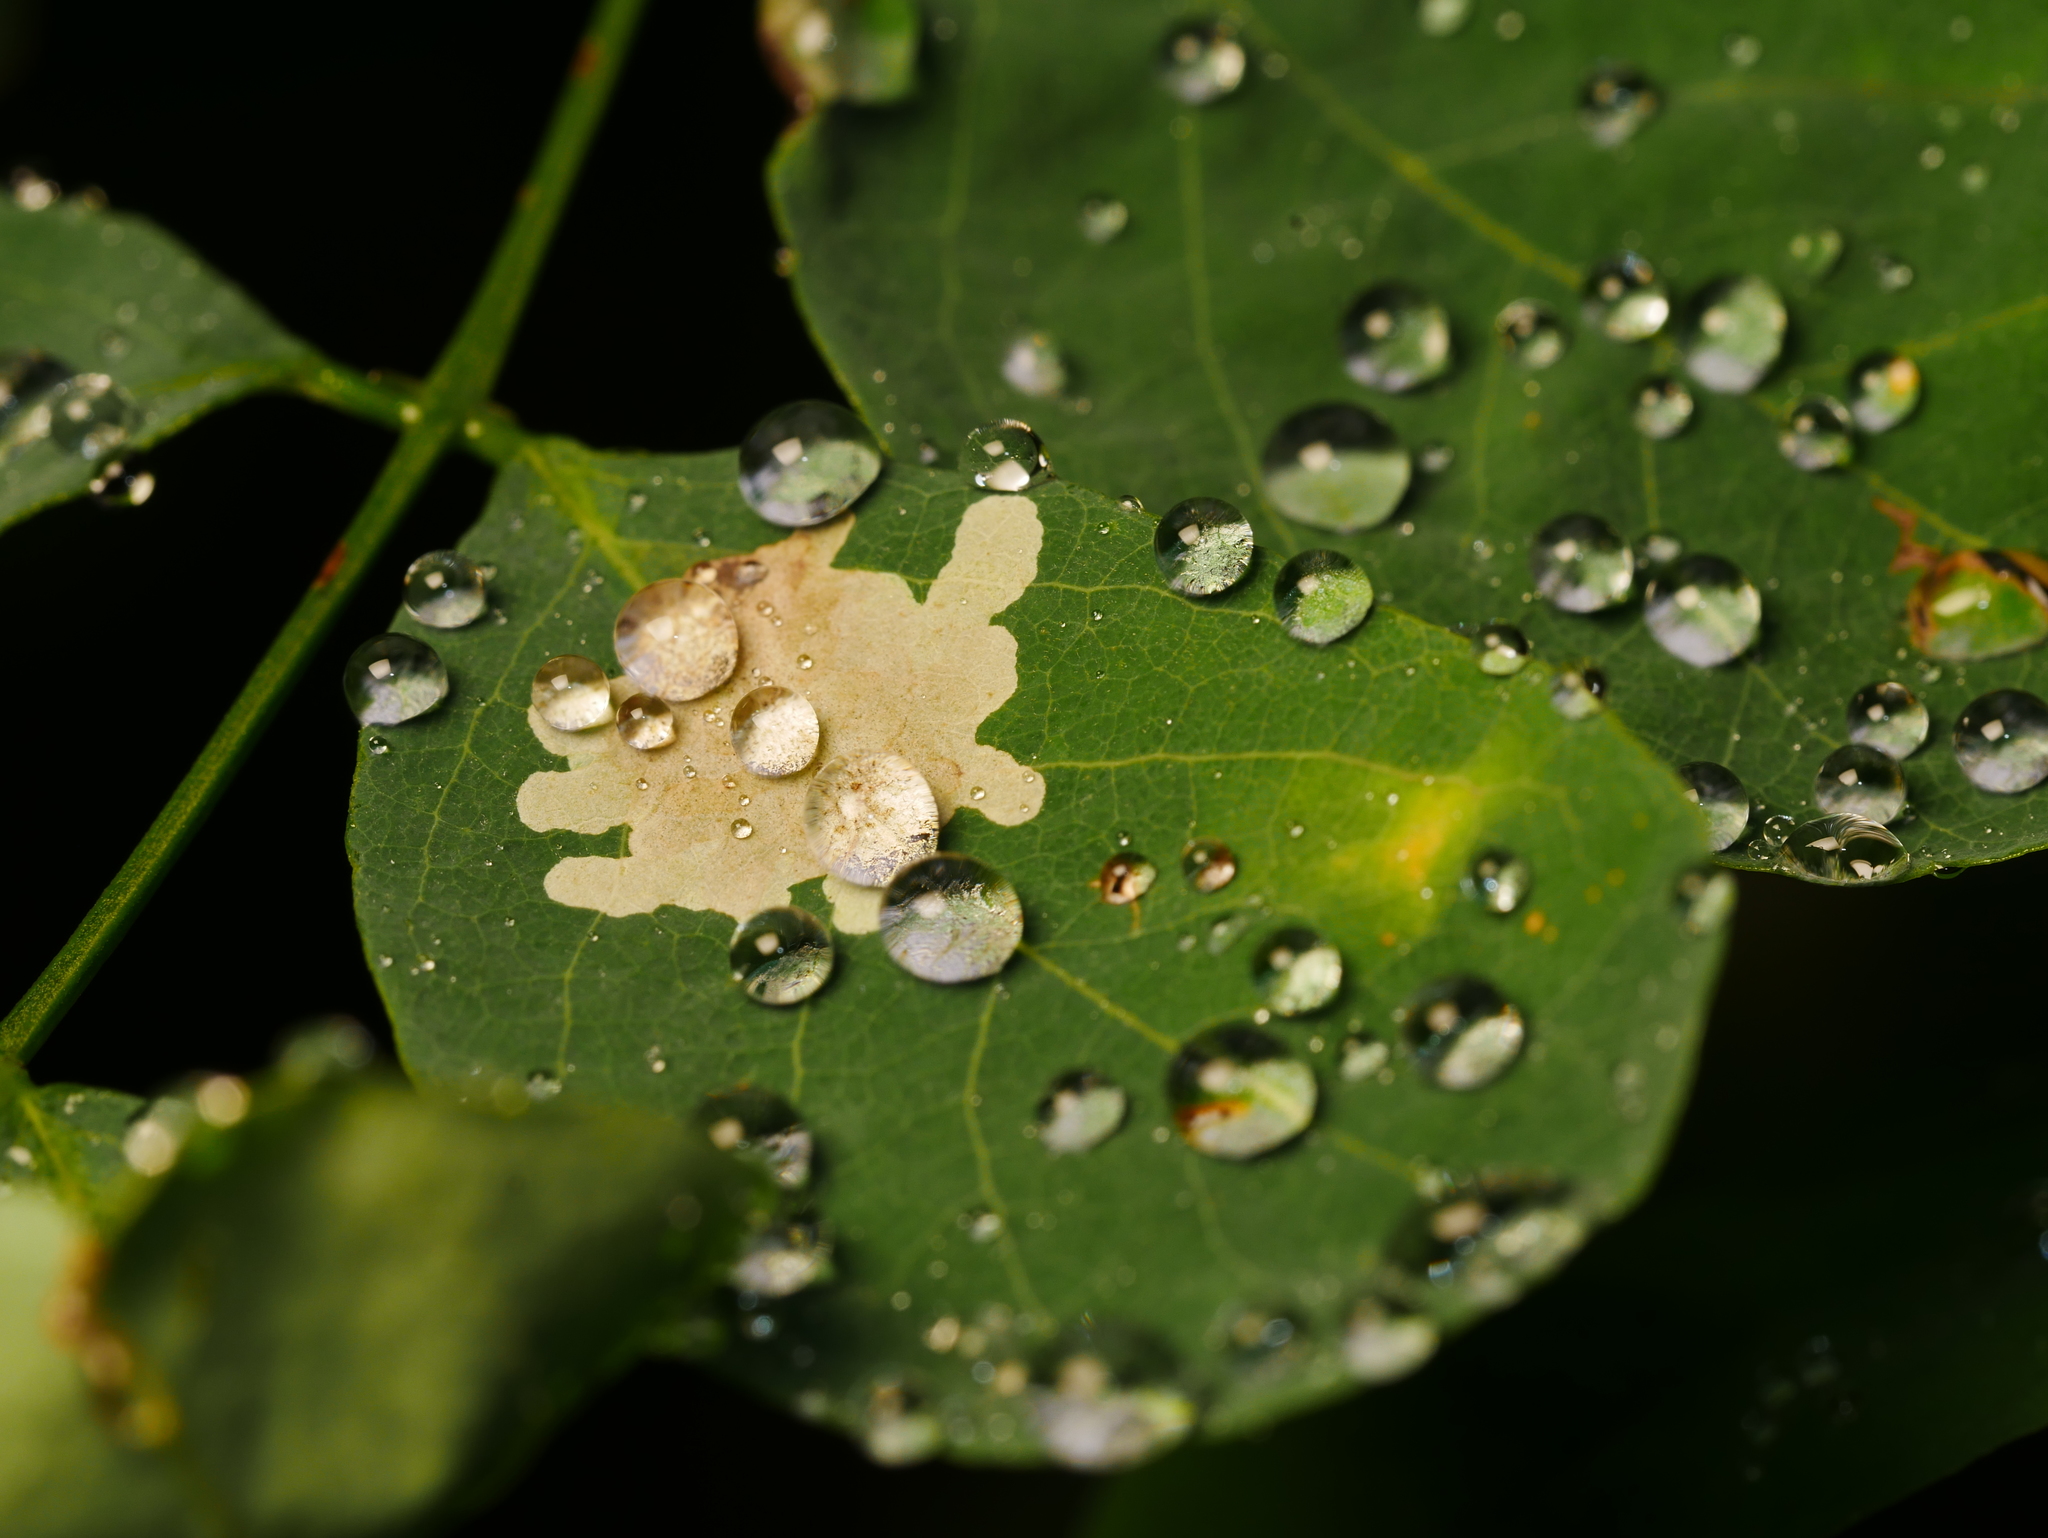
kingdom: Animalia
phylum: Arthropoda
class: Insecta
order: Lepidoptera
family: Gracillariidae
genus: Parectopa
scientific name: Parectopa robiniella
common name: Locust digitate leafminer
